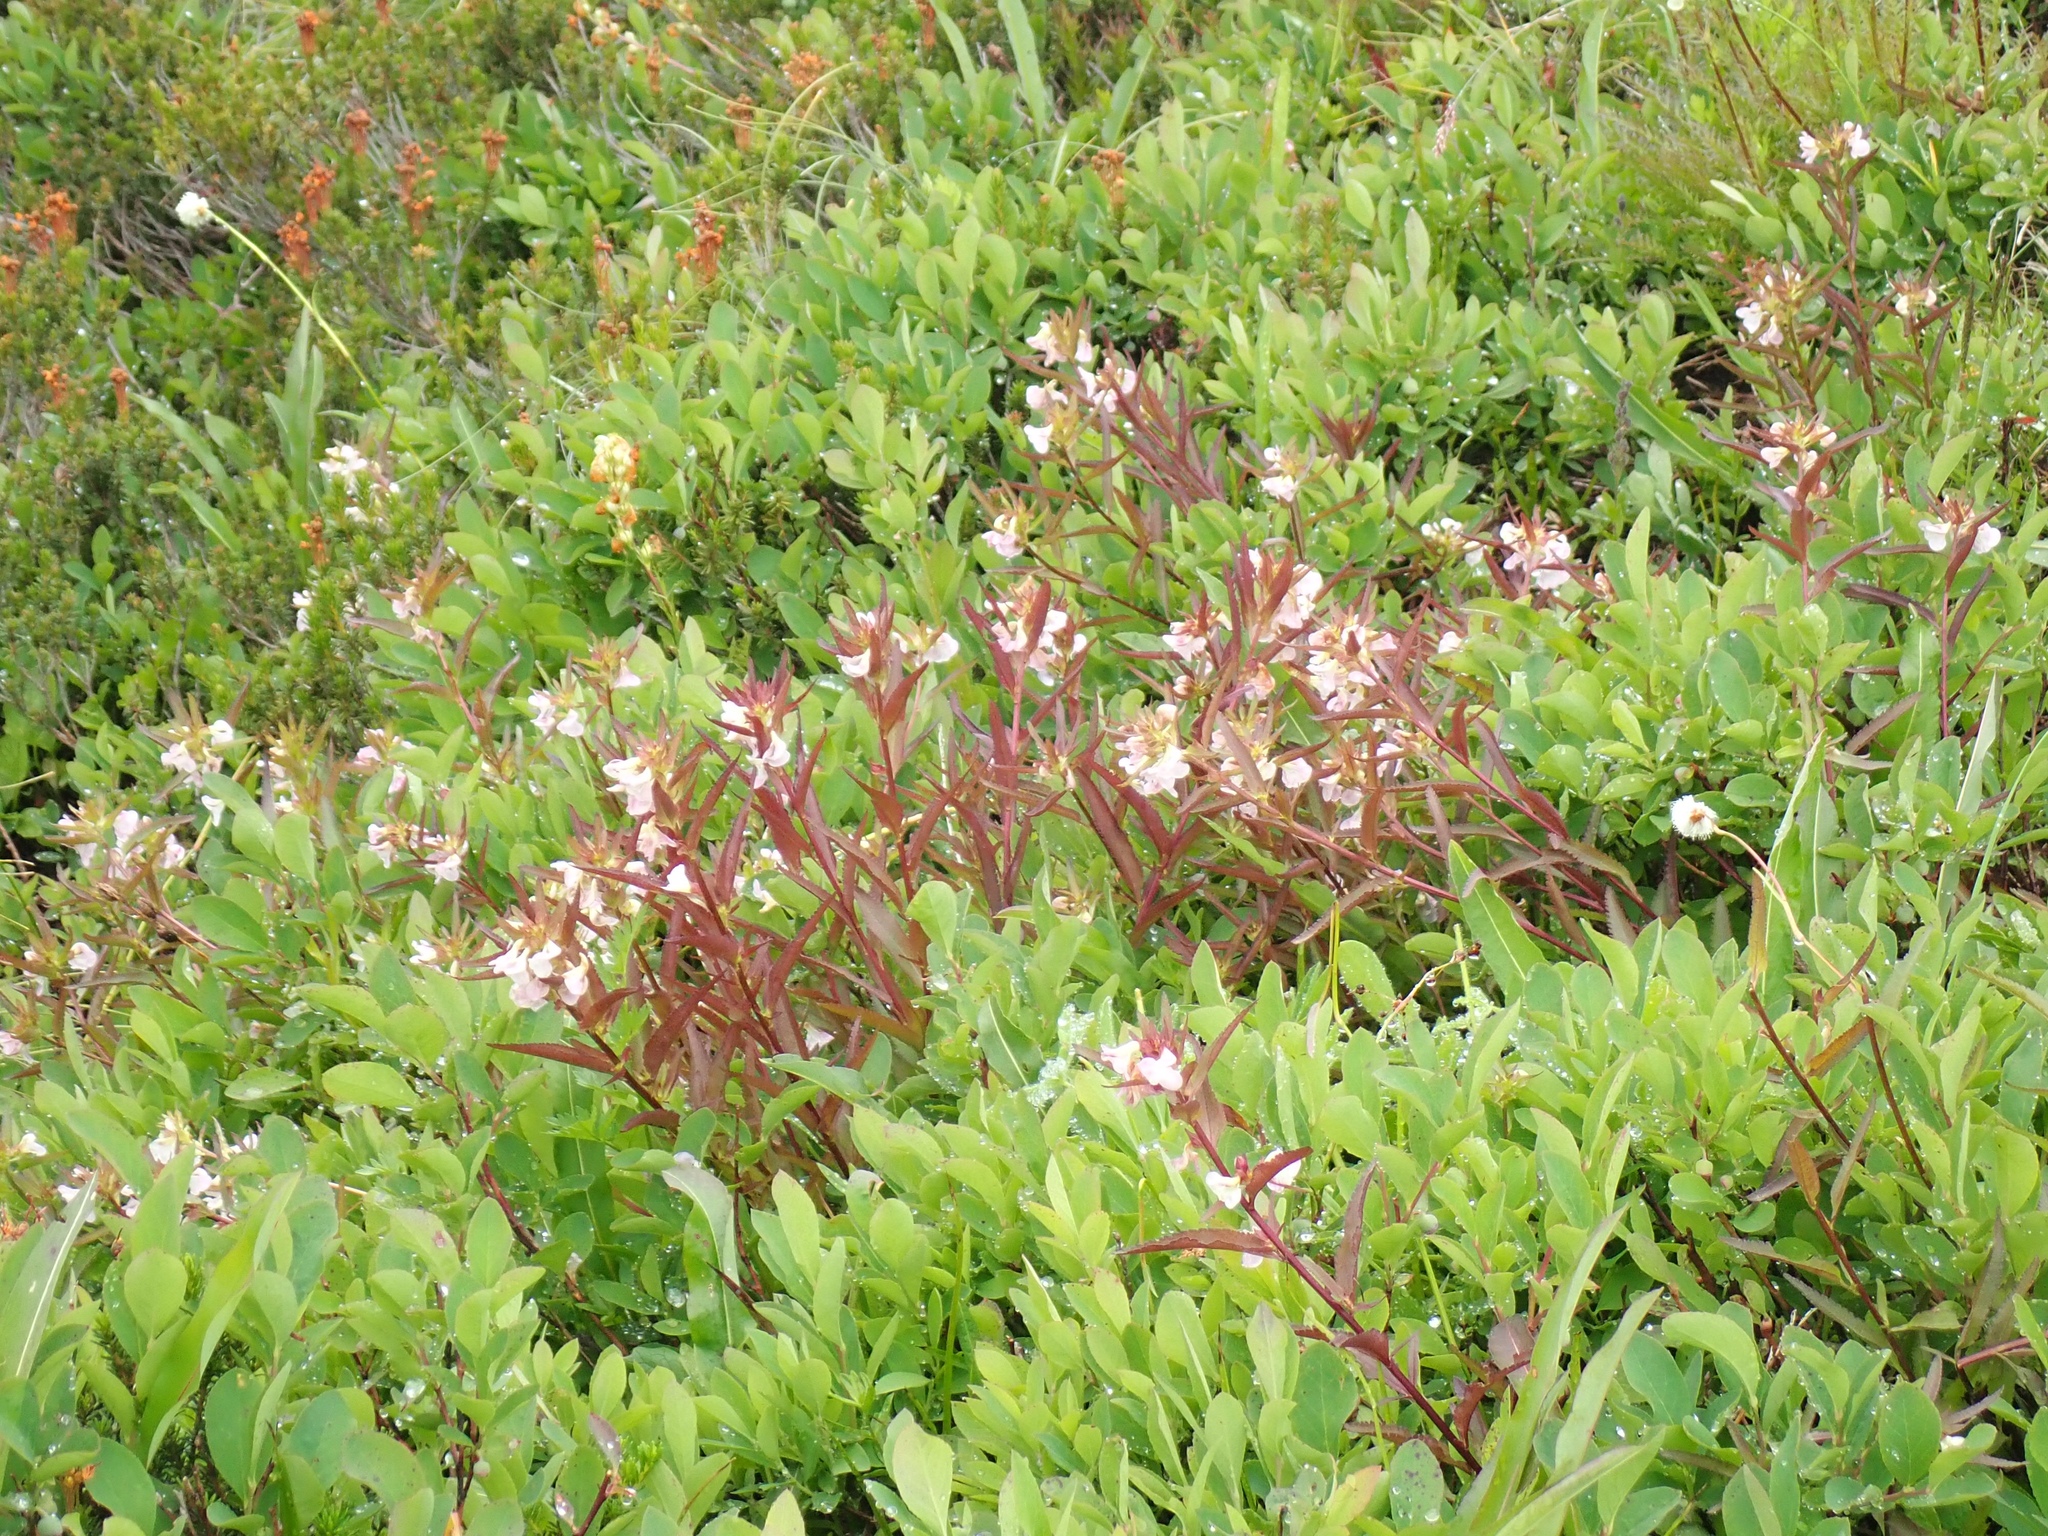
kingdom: Plantae
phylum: Tracheophyta
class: Magnoliopsida
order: Lamiales
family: Orobanchaceae
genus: Pedicularis
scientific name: Pedicularis racemosa
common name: Leafy lousewort
